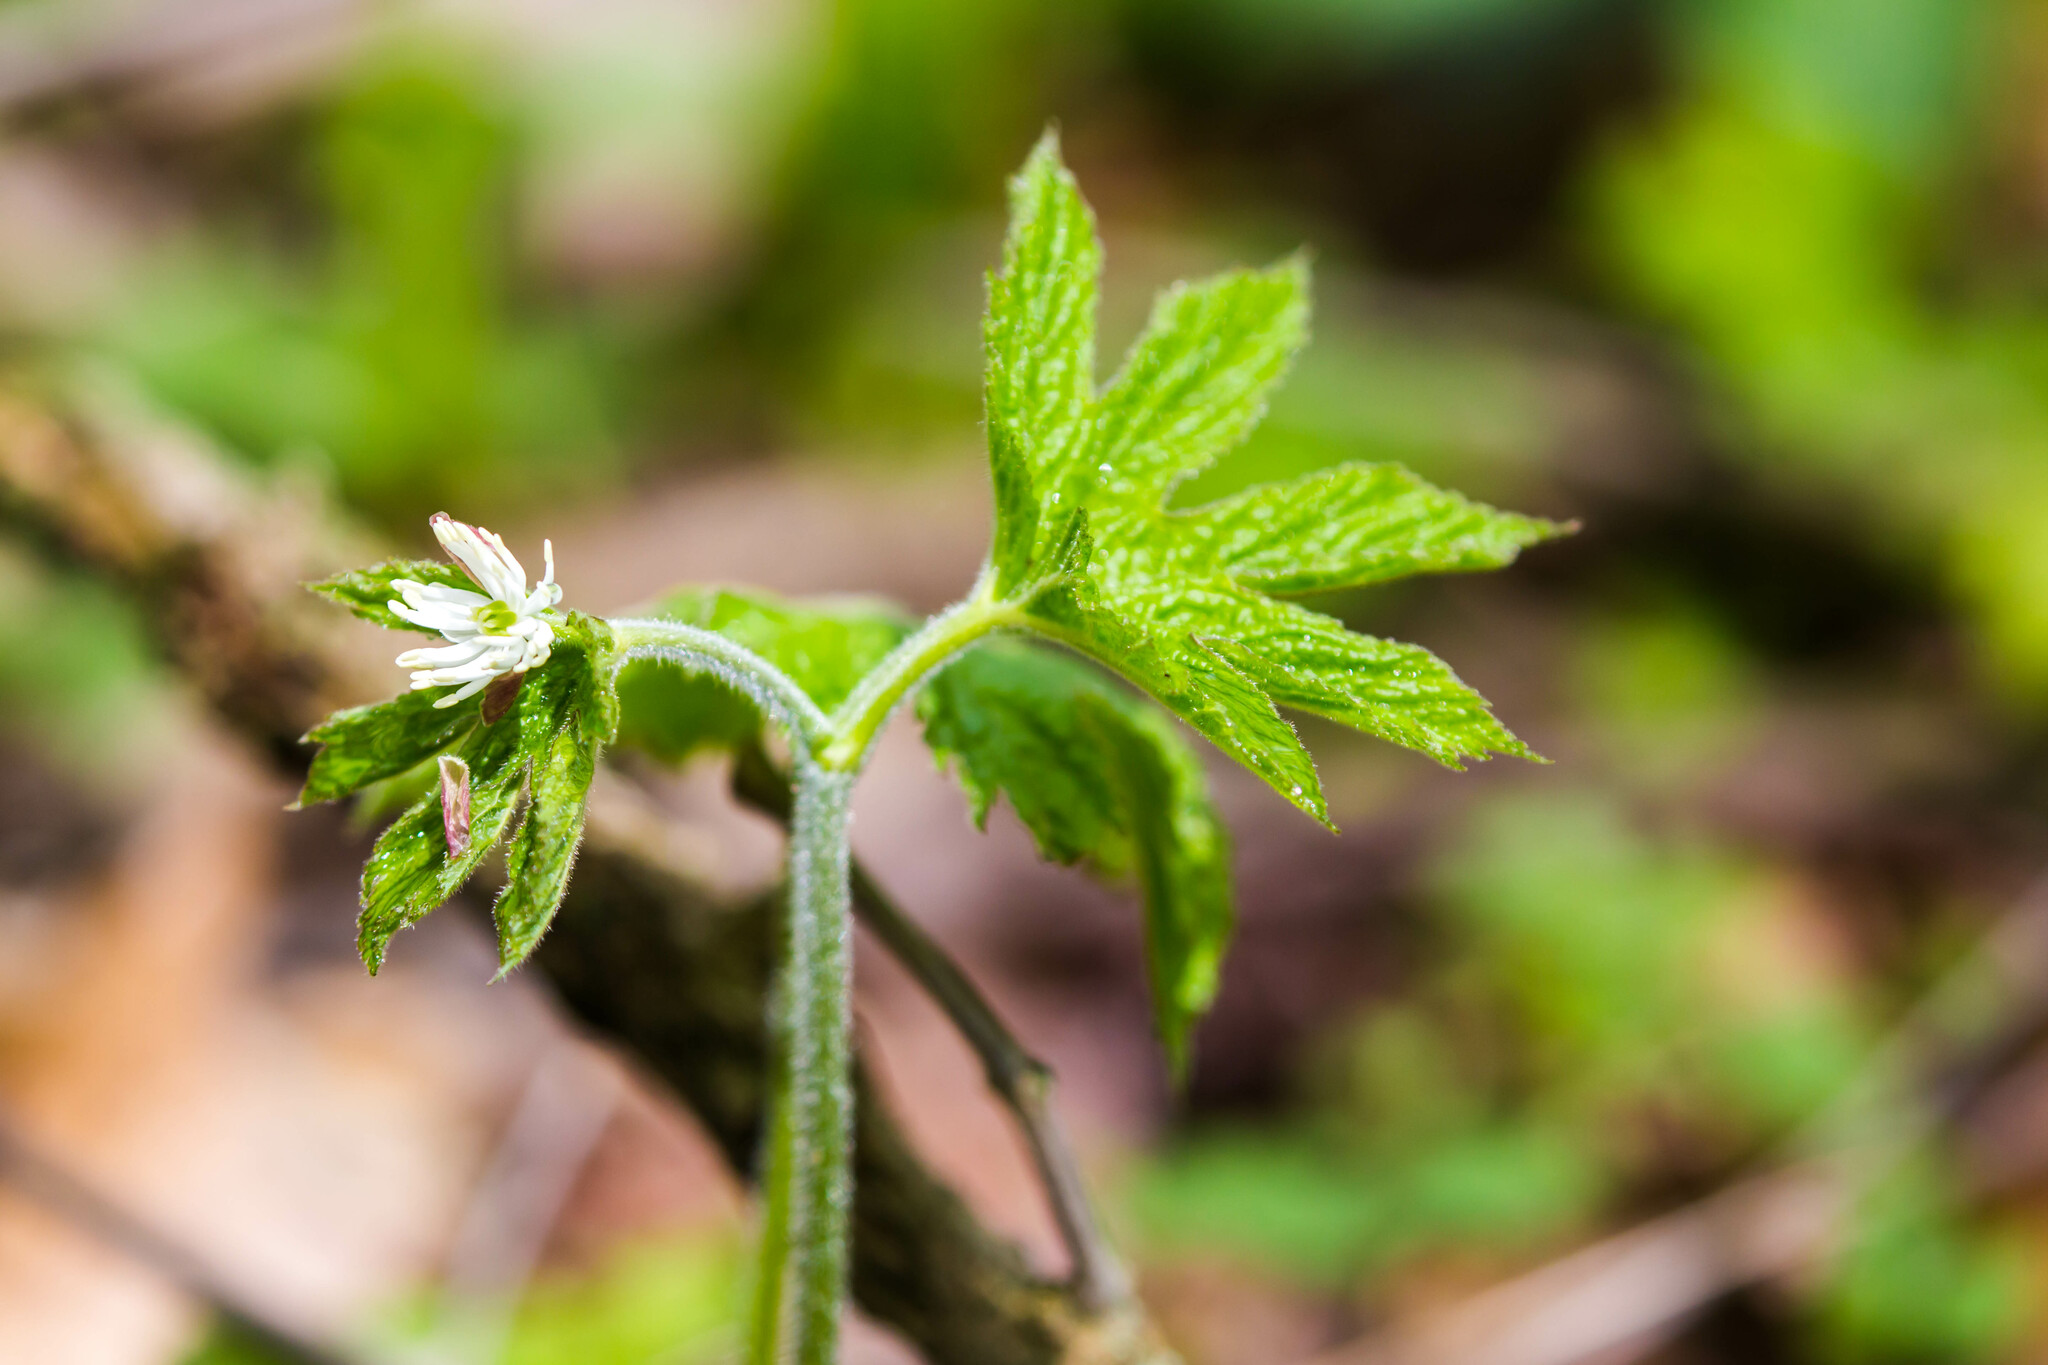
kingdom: Plantae
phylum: Tracheophyta
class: Magnoliopsida
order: Ranunculales
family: Ranunculaceae
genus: Hydrastis
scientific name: Hydrastis canadensis
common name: Goldenseal
